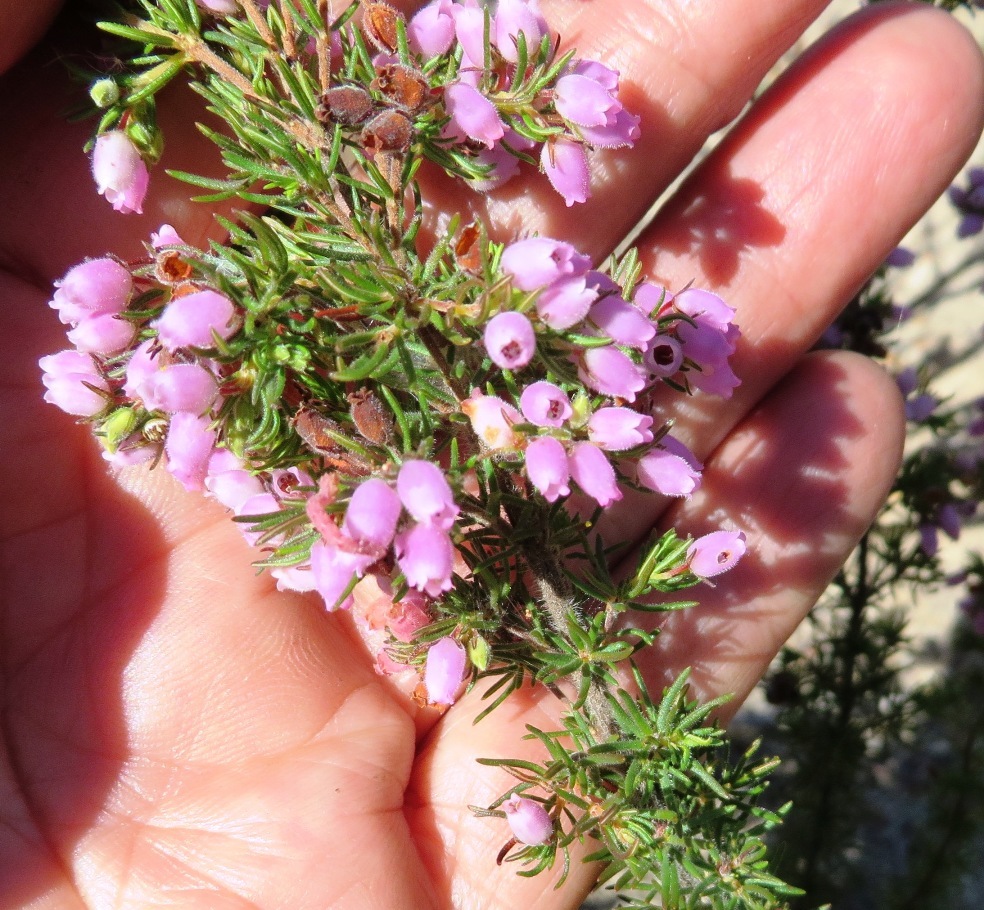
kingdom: Plantae
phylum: Tracheophyta
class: Magnoliopsida
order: Ericales
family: Ericaceae
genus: Erica
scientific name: Erica hirtiflora
